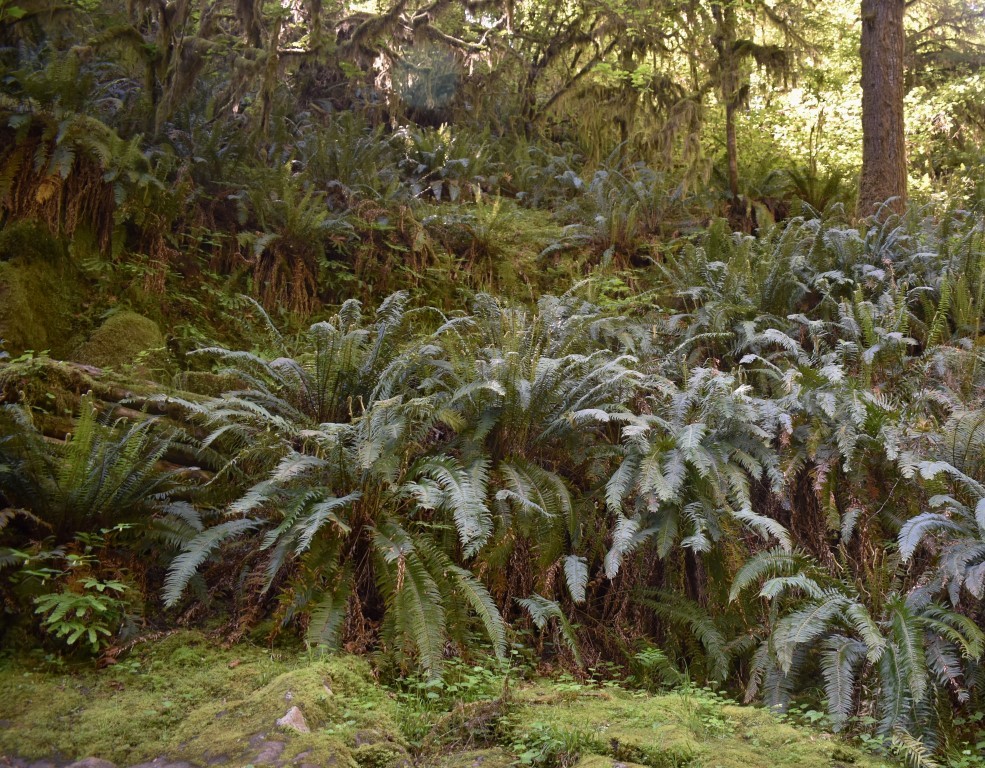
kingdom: Plantae
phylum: Tracheophyta
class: Polypodiopsida
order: Polypodiales
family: Dryopteridaceae
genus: Polystichum
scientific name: Polystichum munitum
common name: Western sword-fern
